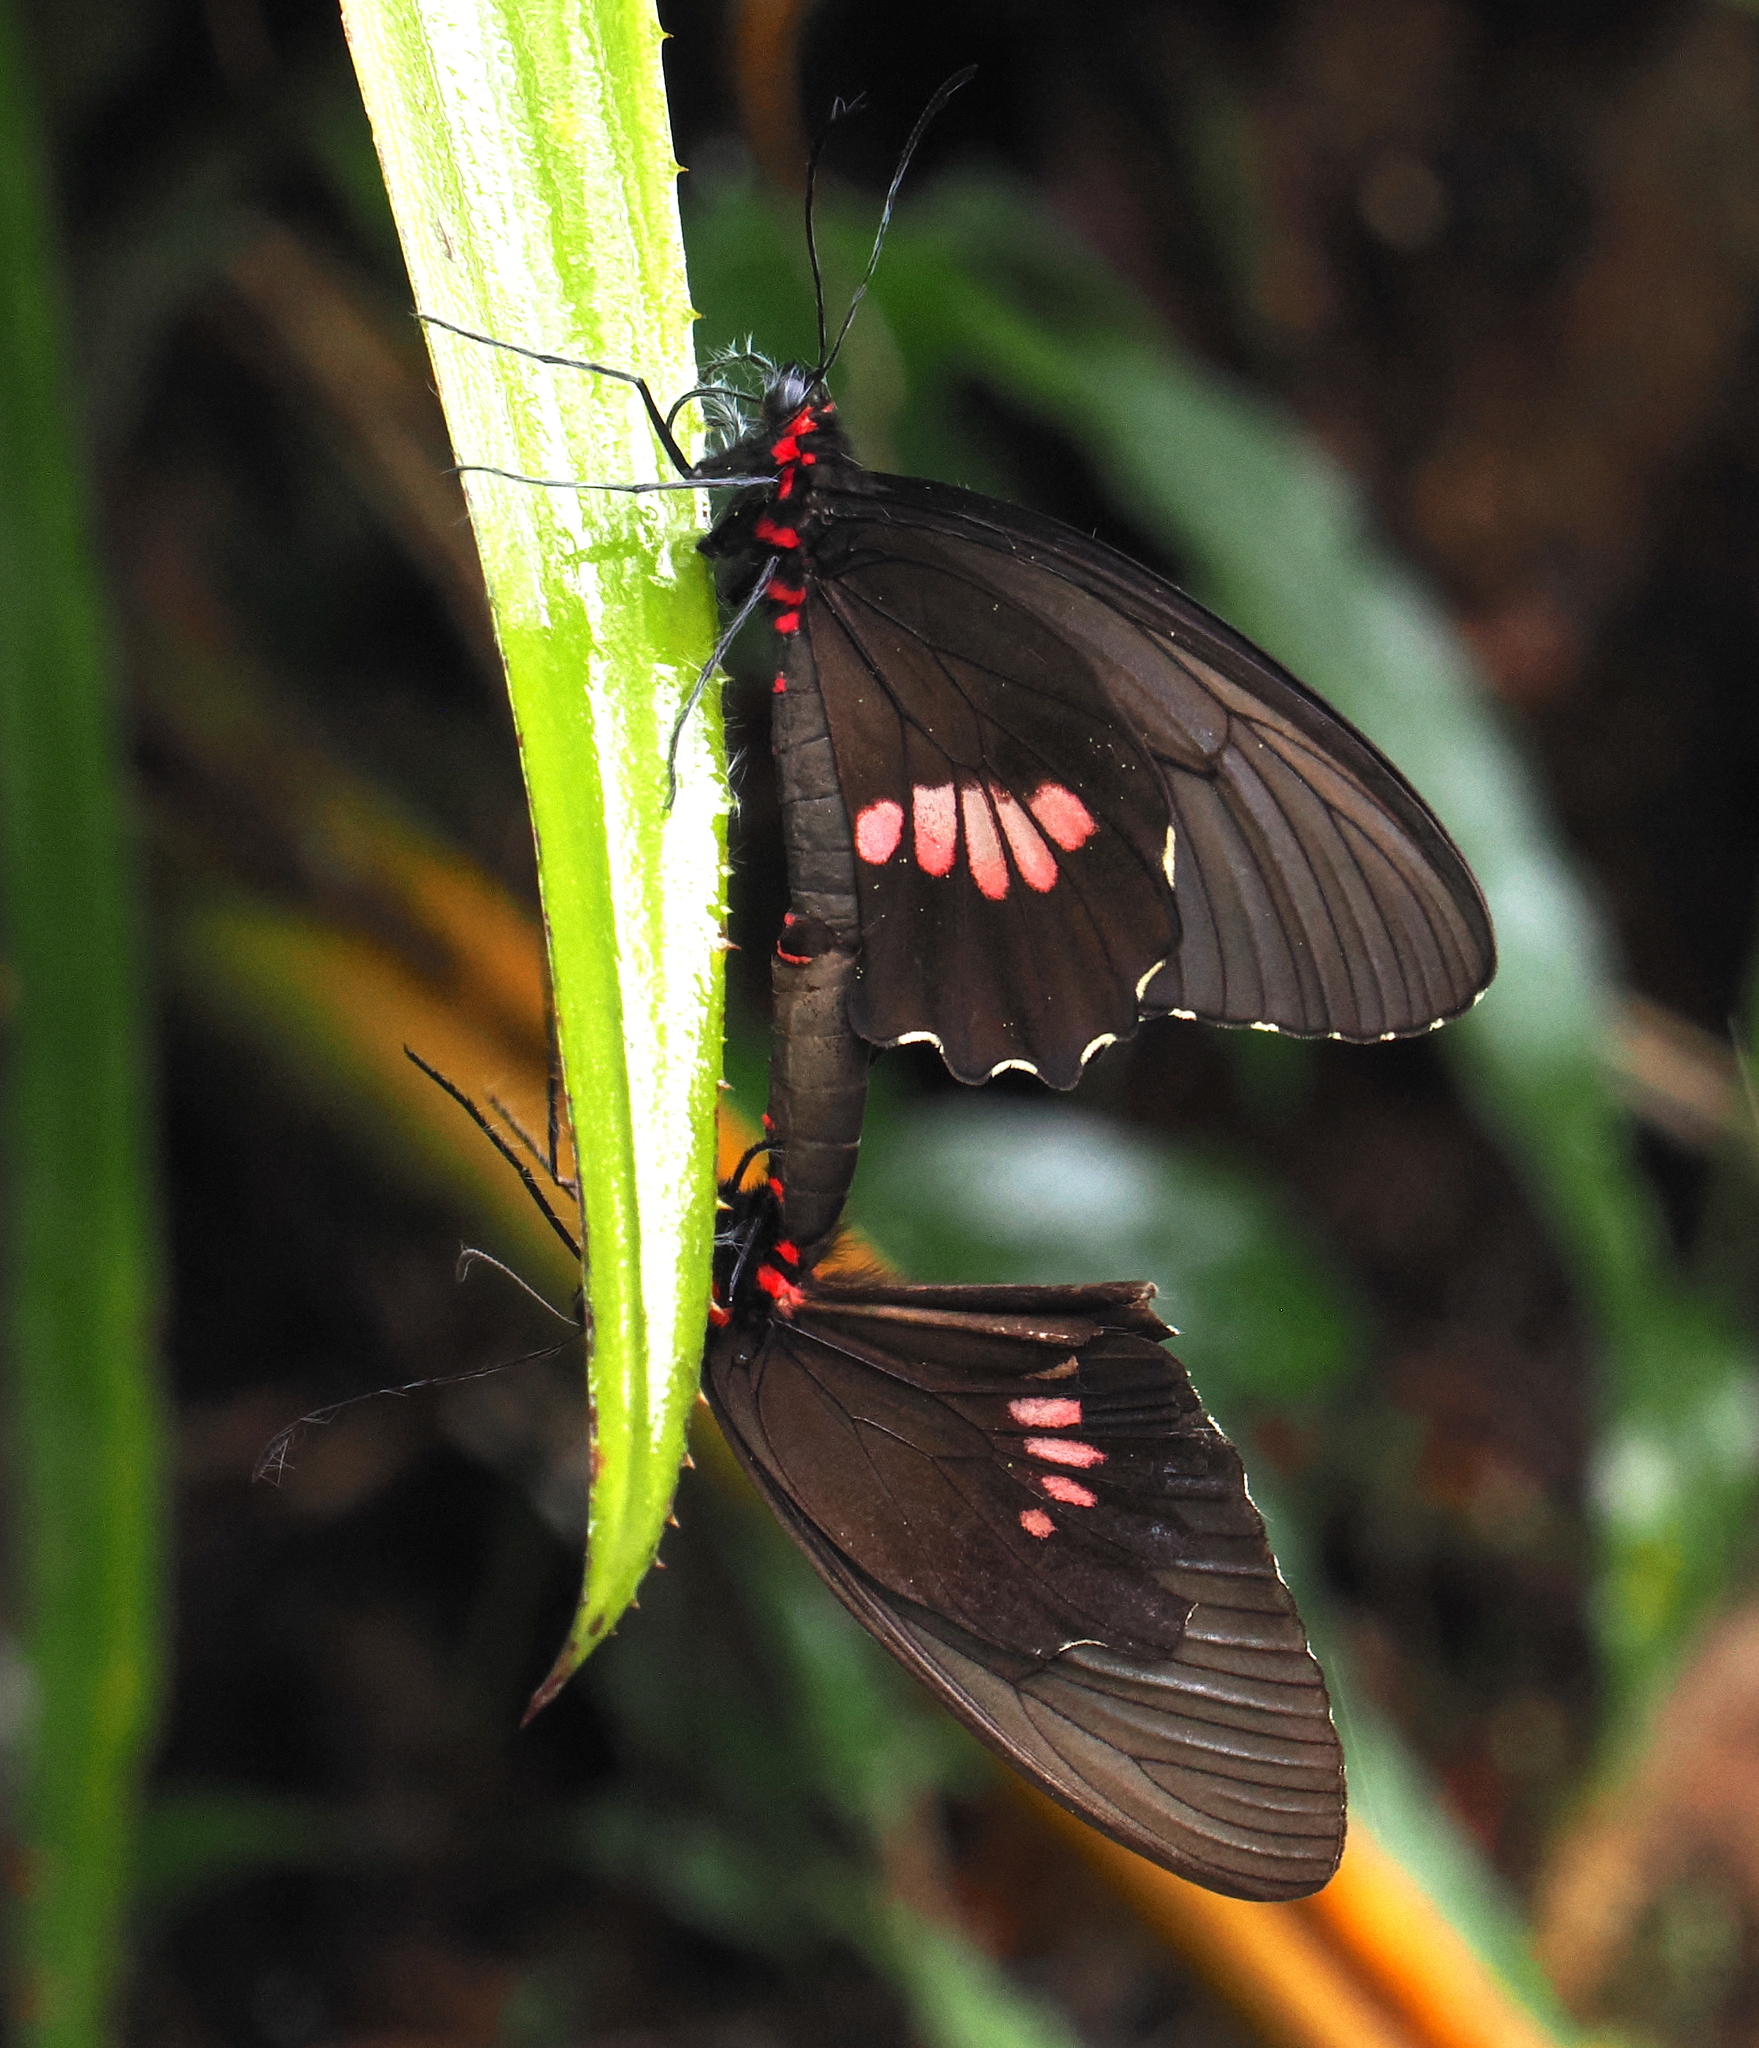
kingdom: Animalia
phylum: Arthropoda
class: Insecta
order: Lepidoptera
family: Papilionidae
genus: Parides
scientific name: Parides anchises
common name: Cattle heart
